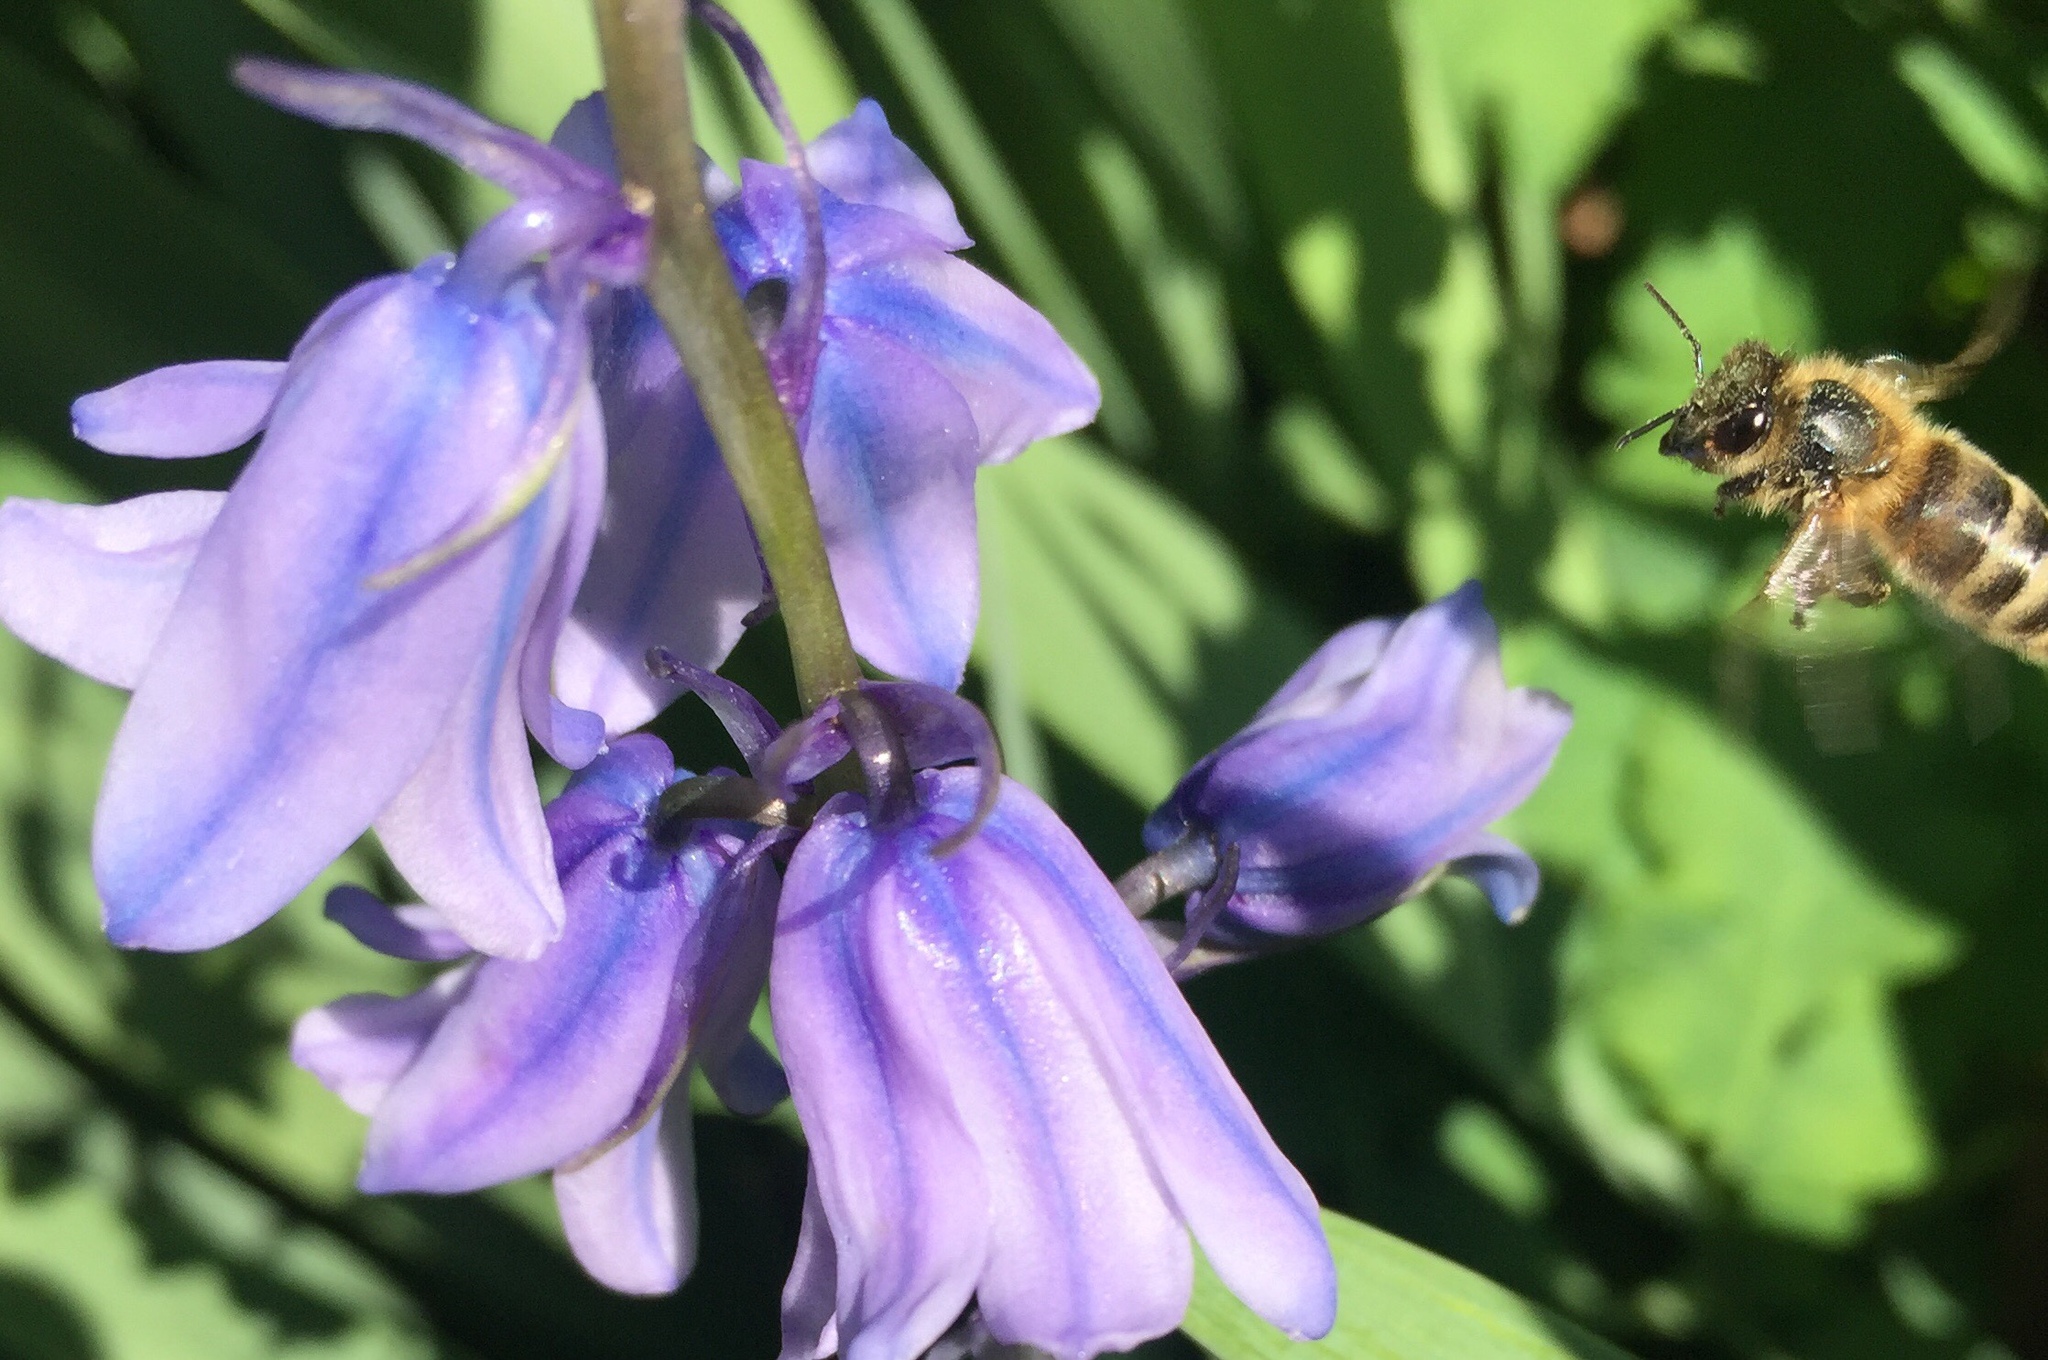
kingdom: Animalia
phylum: Arthropoda
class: Insecta
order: Hymenoptera
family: Apidae
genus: Apis
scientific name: Apis mellifera
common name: Honey bee
